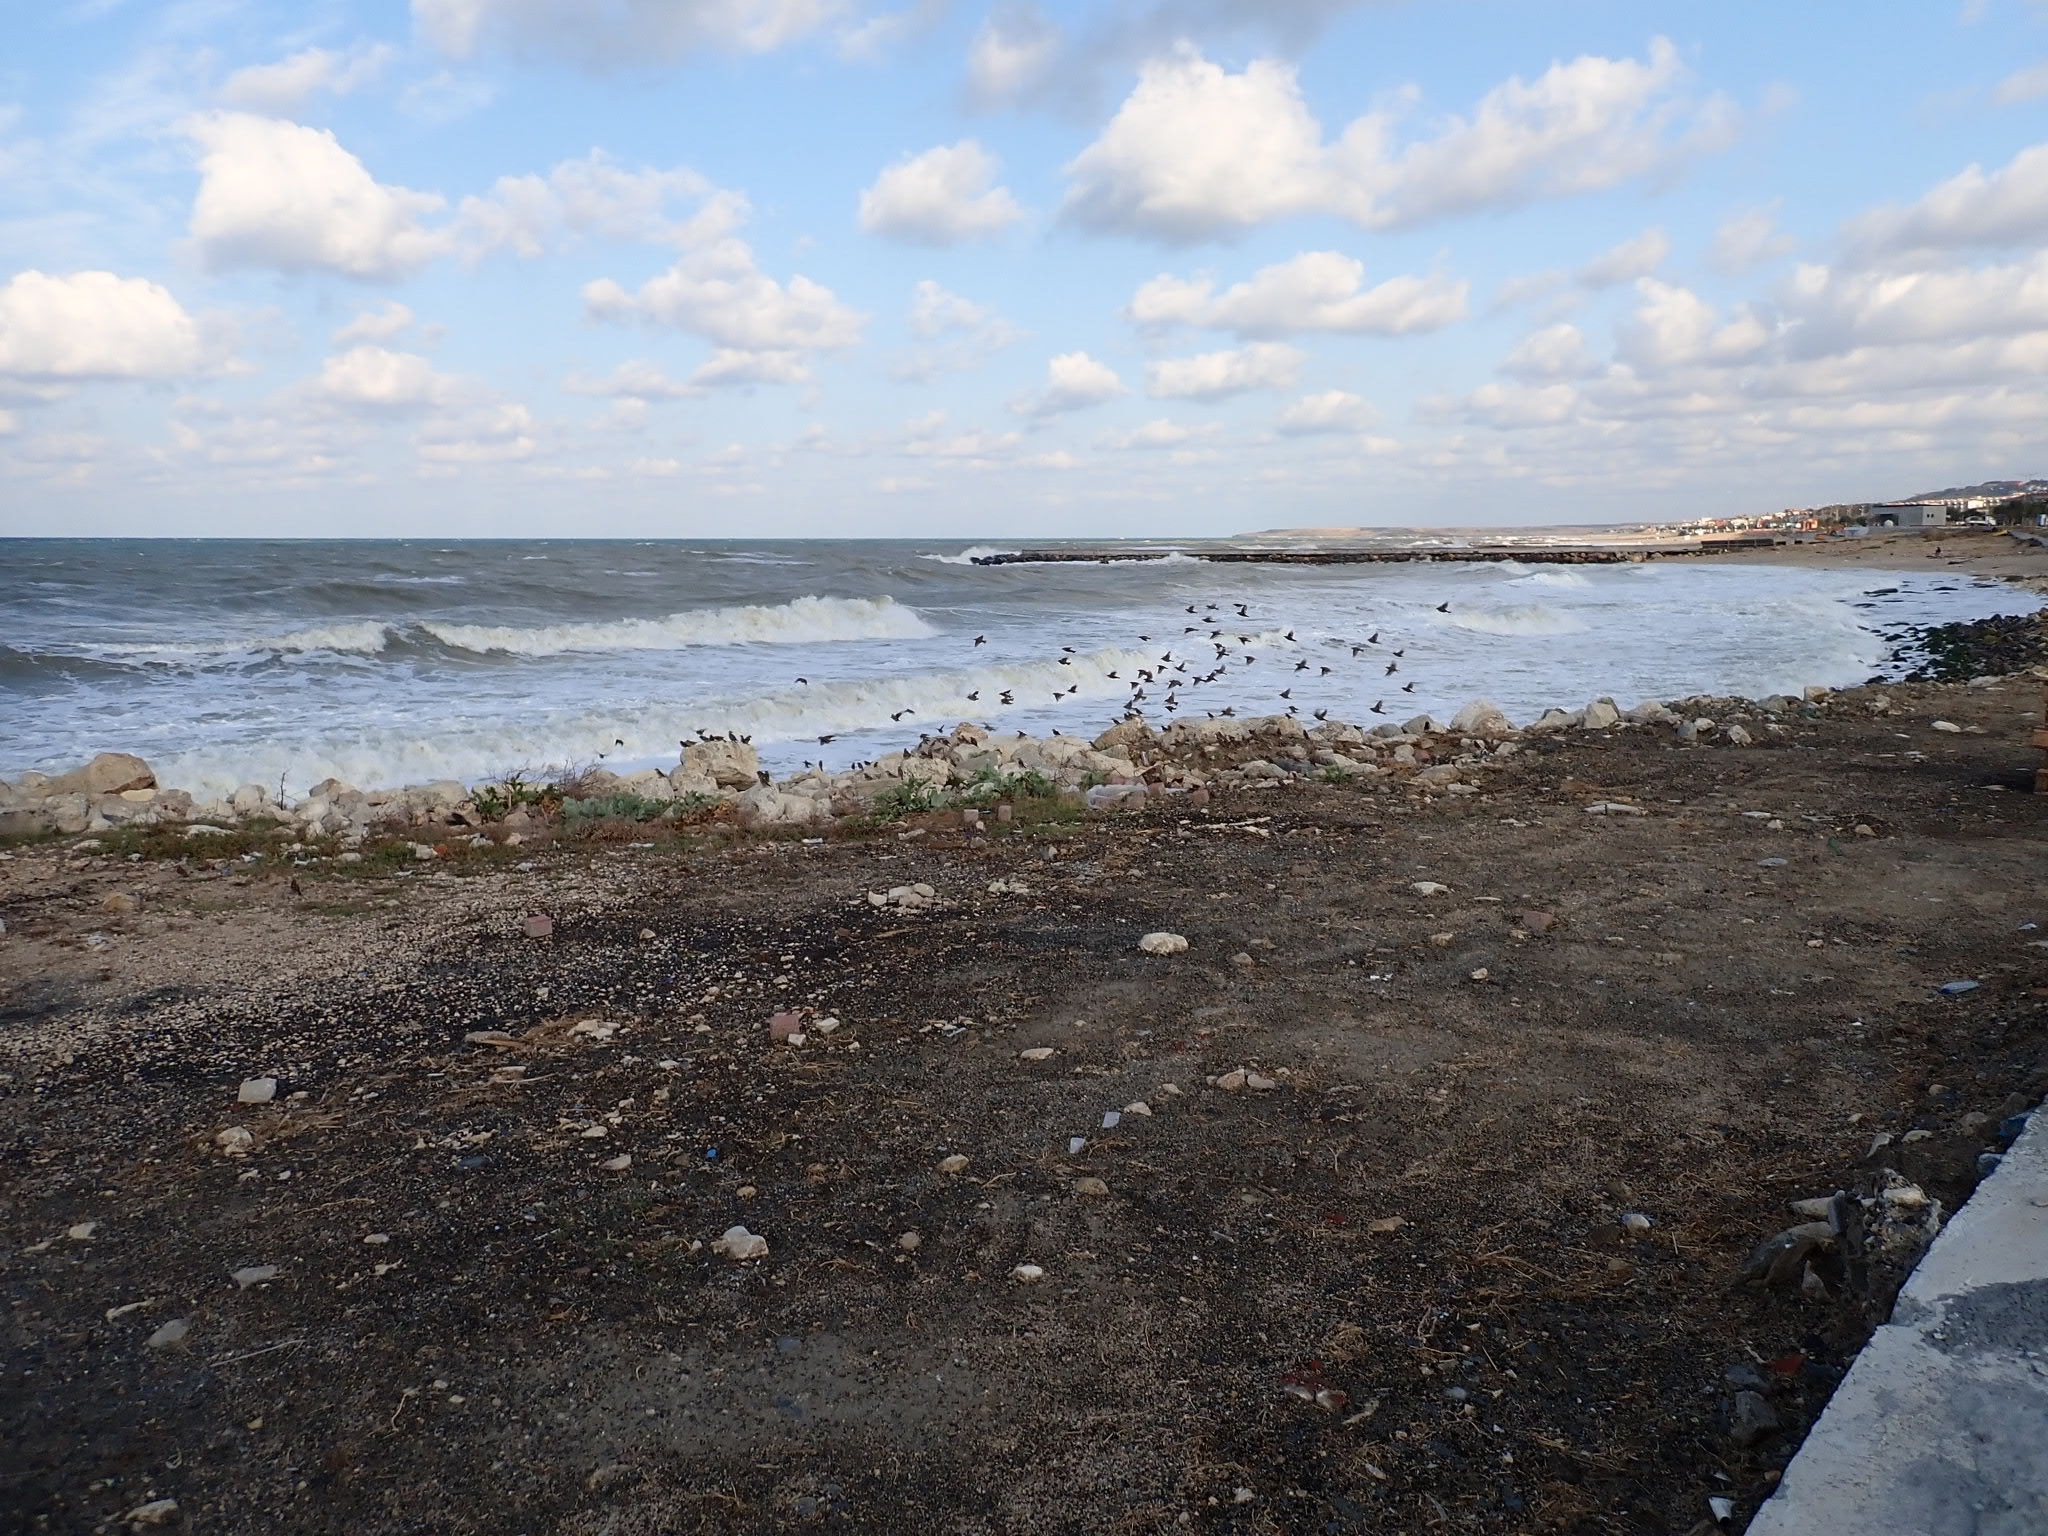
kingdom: Animalia
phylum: Chordata
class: Aves
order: Passeriformes
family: Passeridae
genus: Passer
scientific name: Passer domesticus
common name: House sparrow
